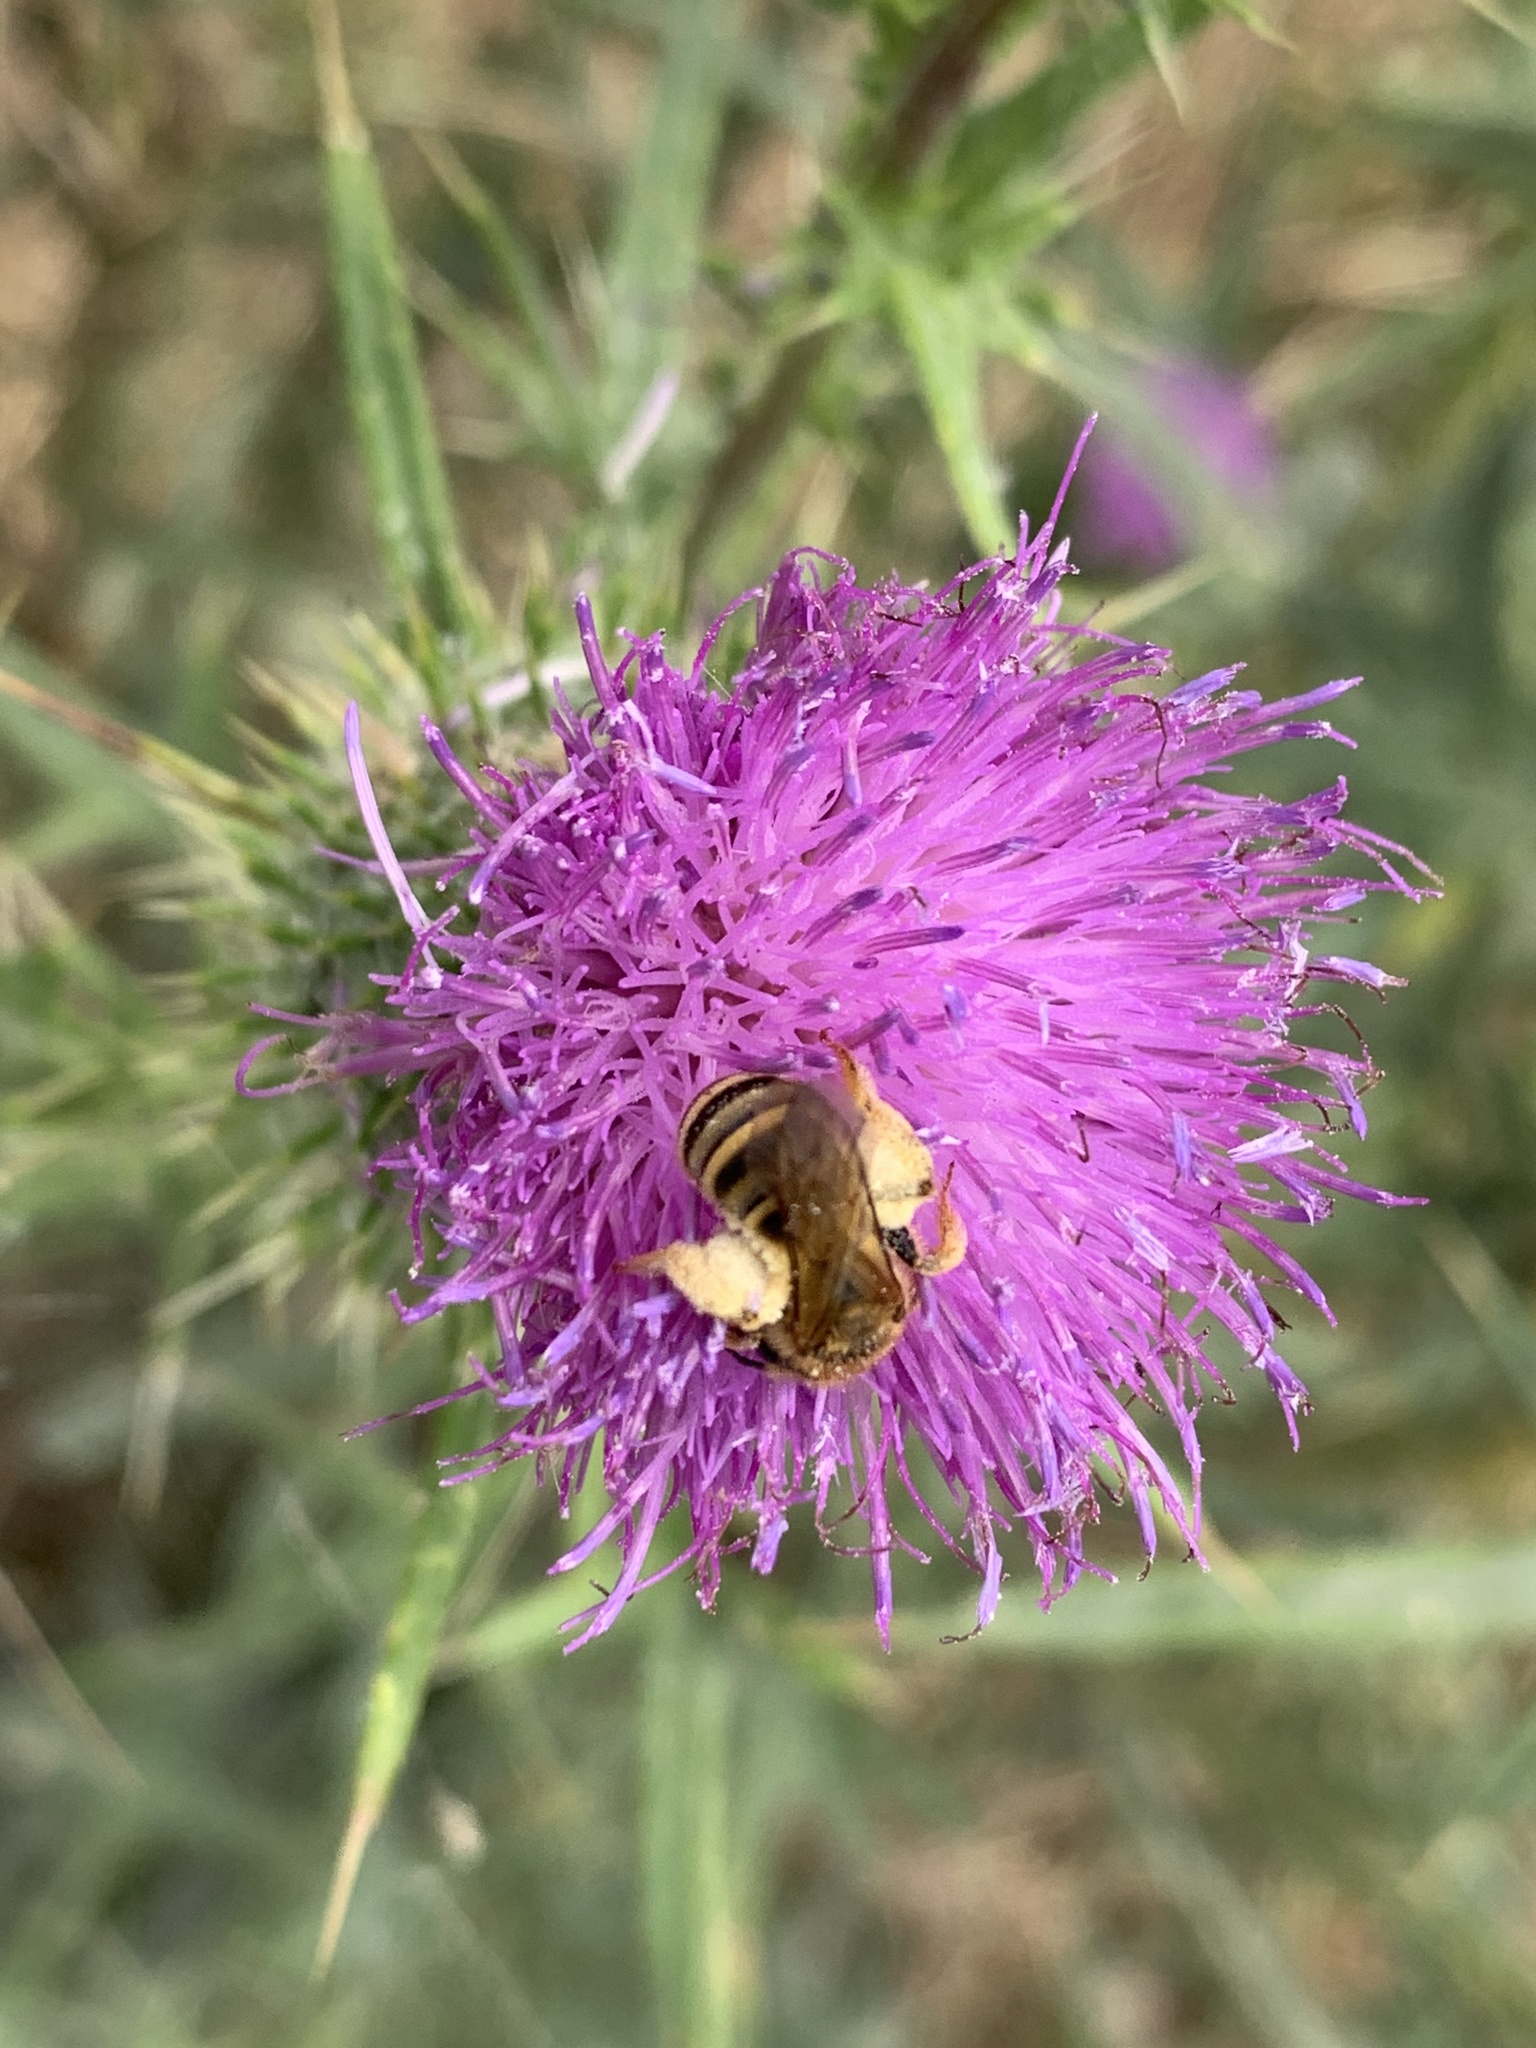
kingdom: Animalia
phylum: Arthropoda
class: Insecta
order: Hymenoptera
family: Halictidae
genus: Halictus
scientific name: Halictus scabiosae
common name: Great banded furrow bee
